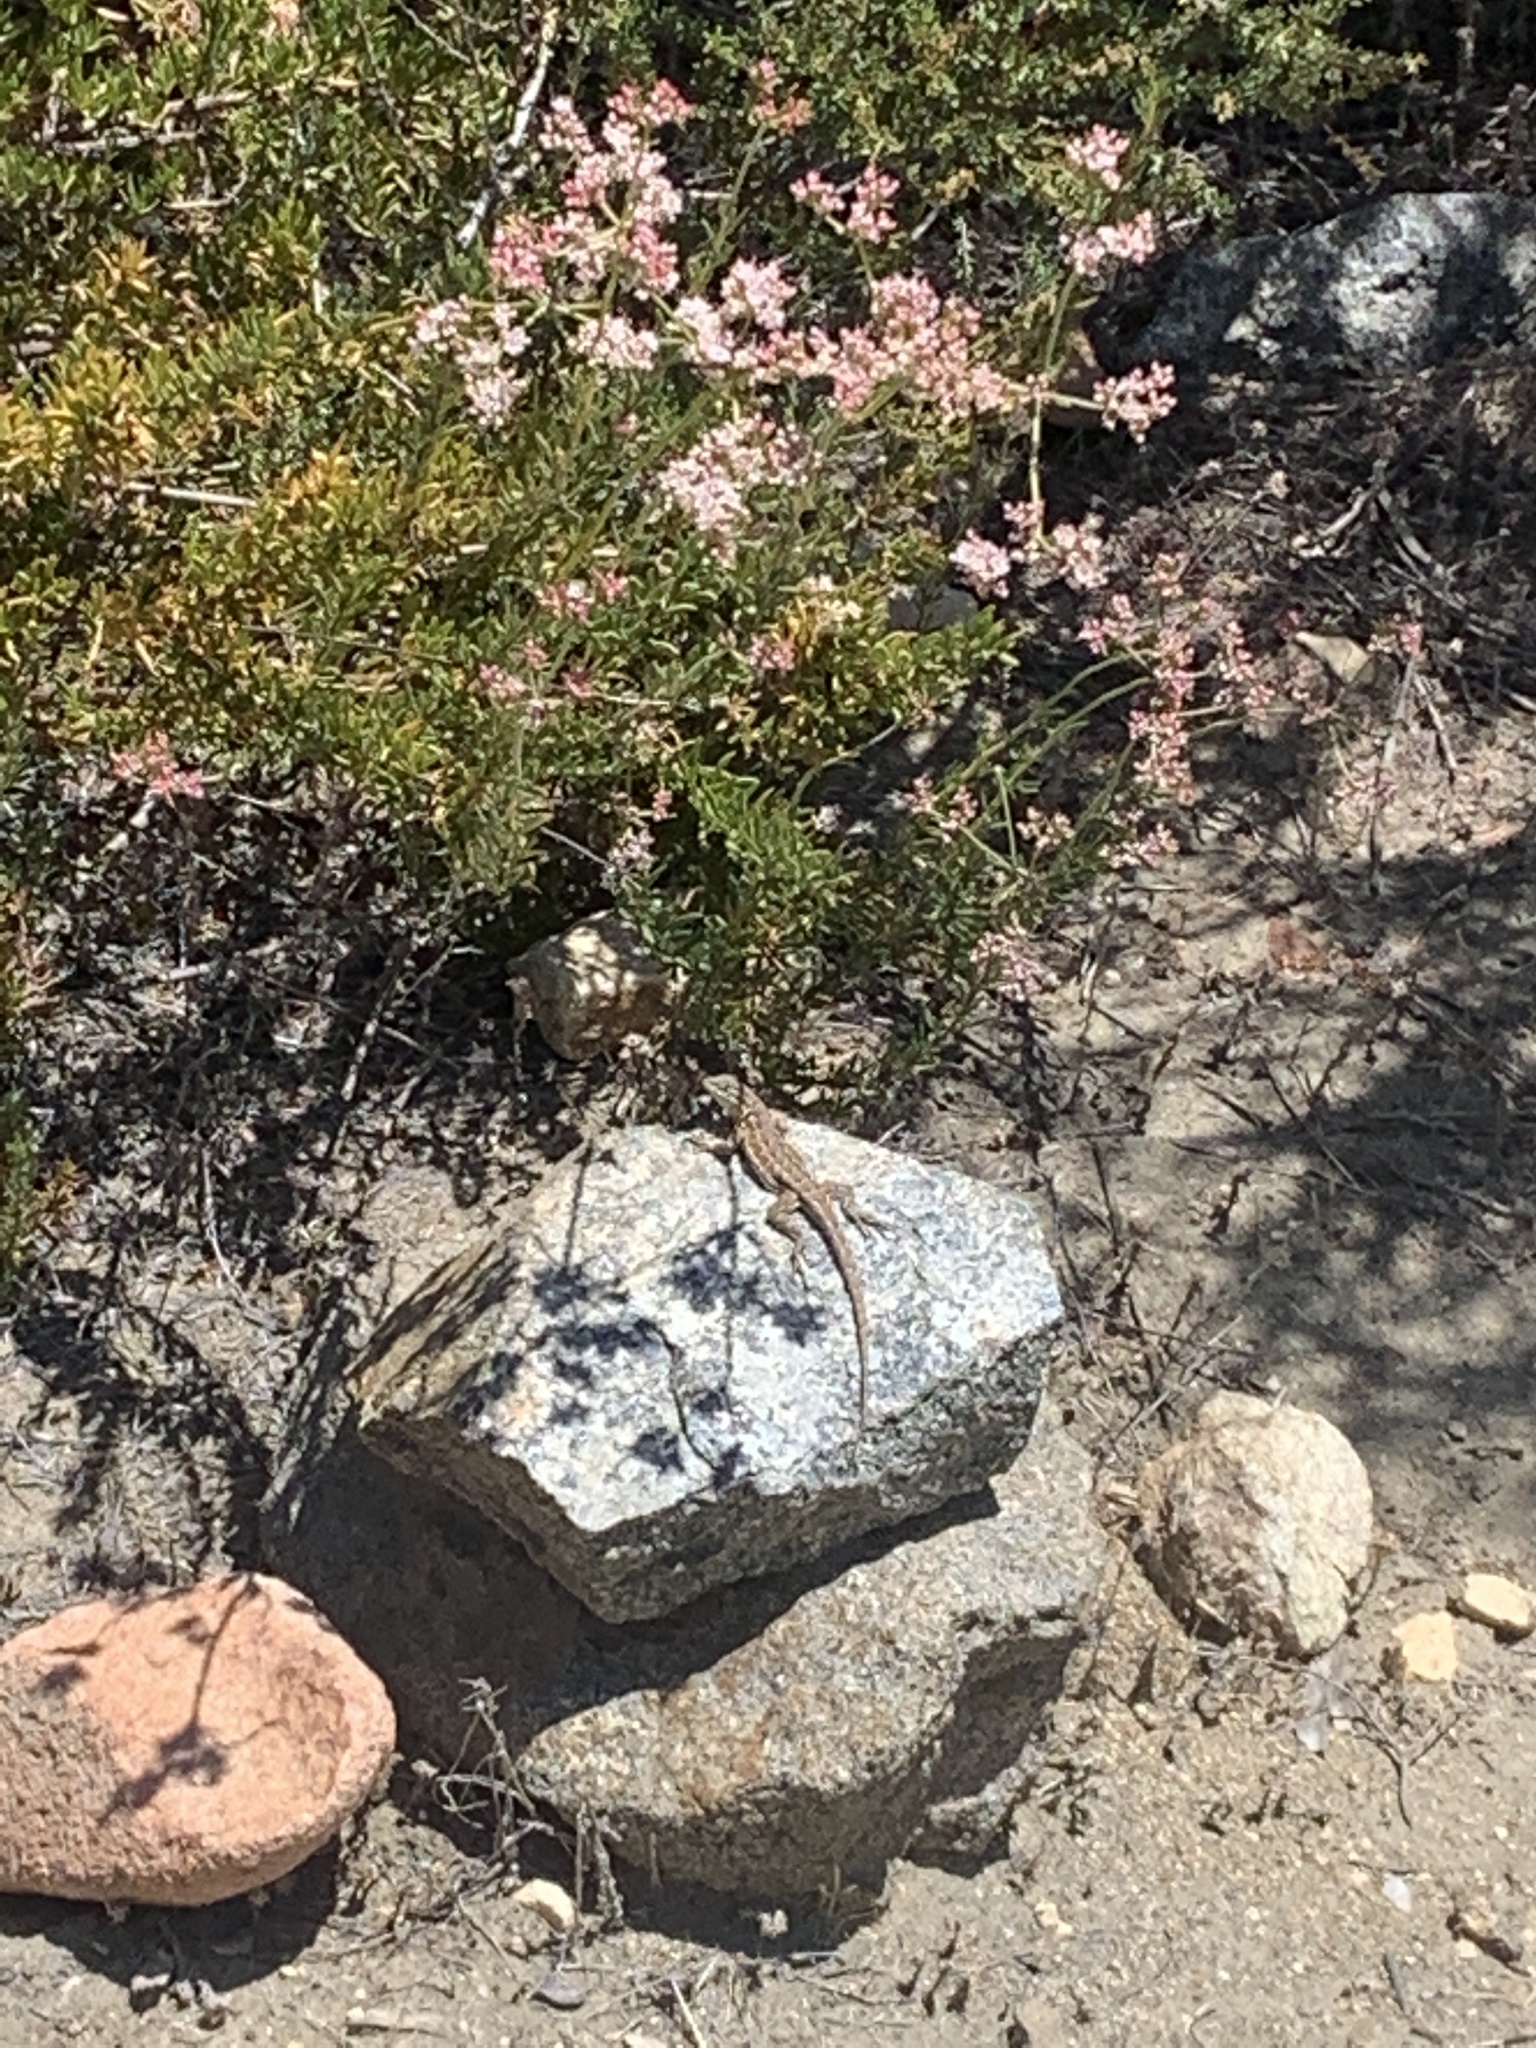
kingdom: Animalia
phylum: Chordata
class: Squamata
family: Phrynosomatidae
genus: Uta
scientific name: Uta stansburiana
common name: Side-blotched lizard
